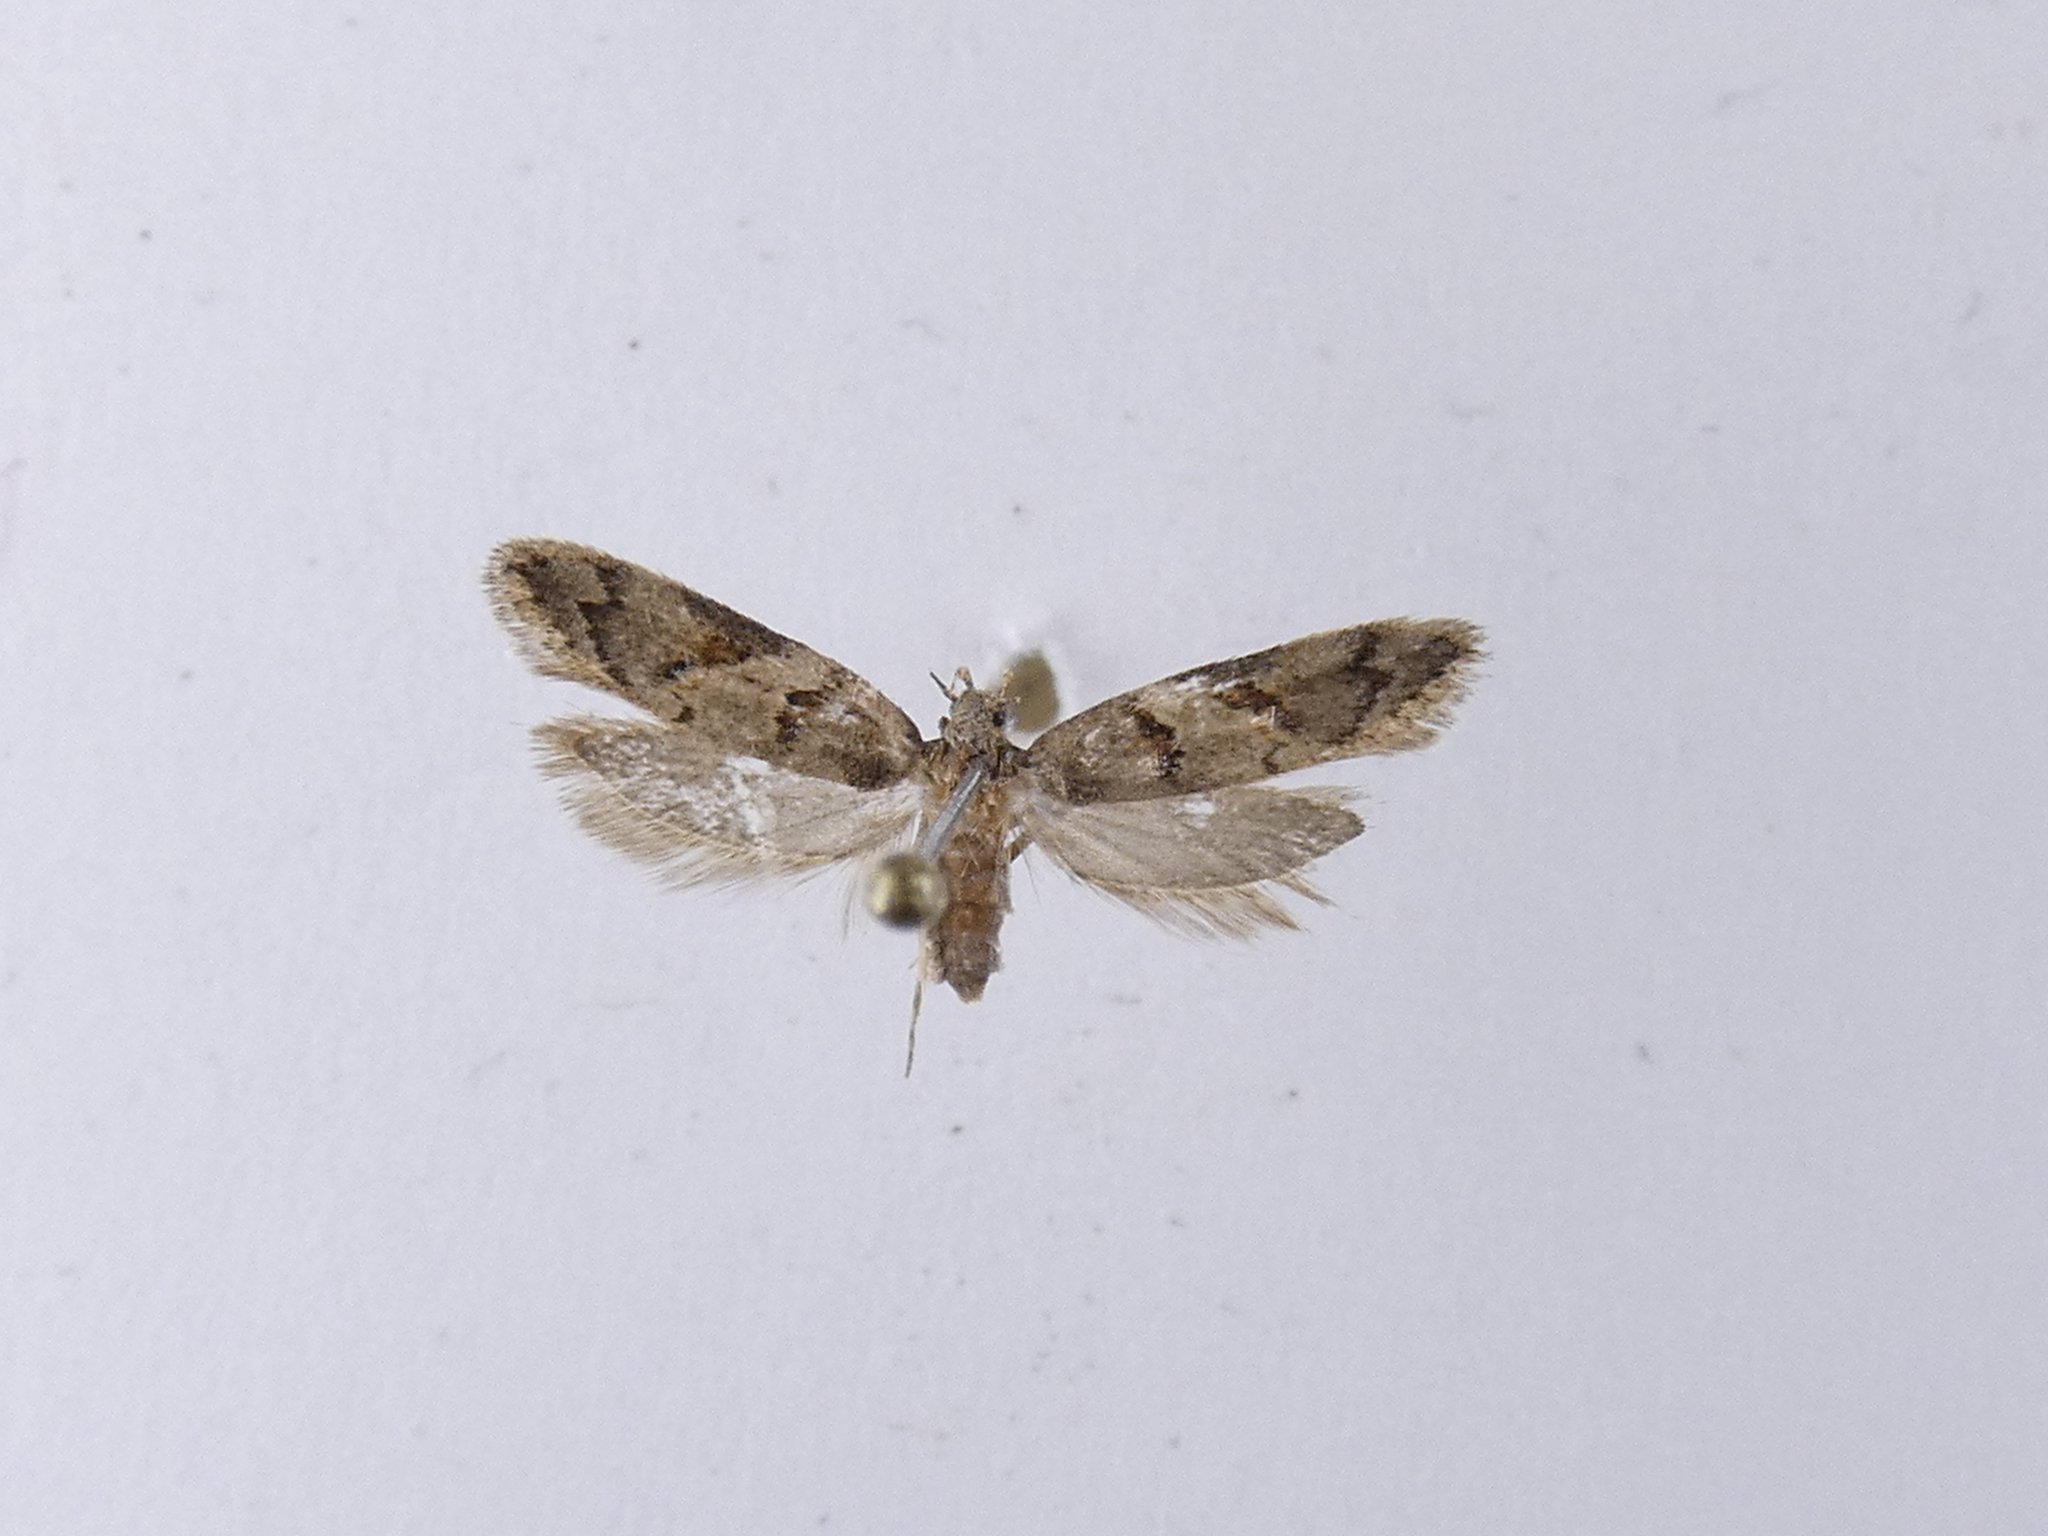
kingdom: Animalia
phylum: Arthropoda
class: Insecta
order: Lepidoptera
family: Oecophoridae
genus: Trachypepla
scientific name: Trachypepla contritella
